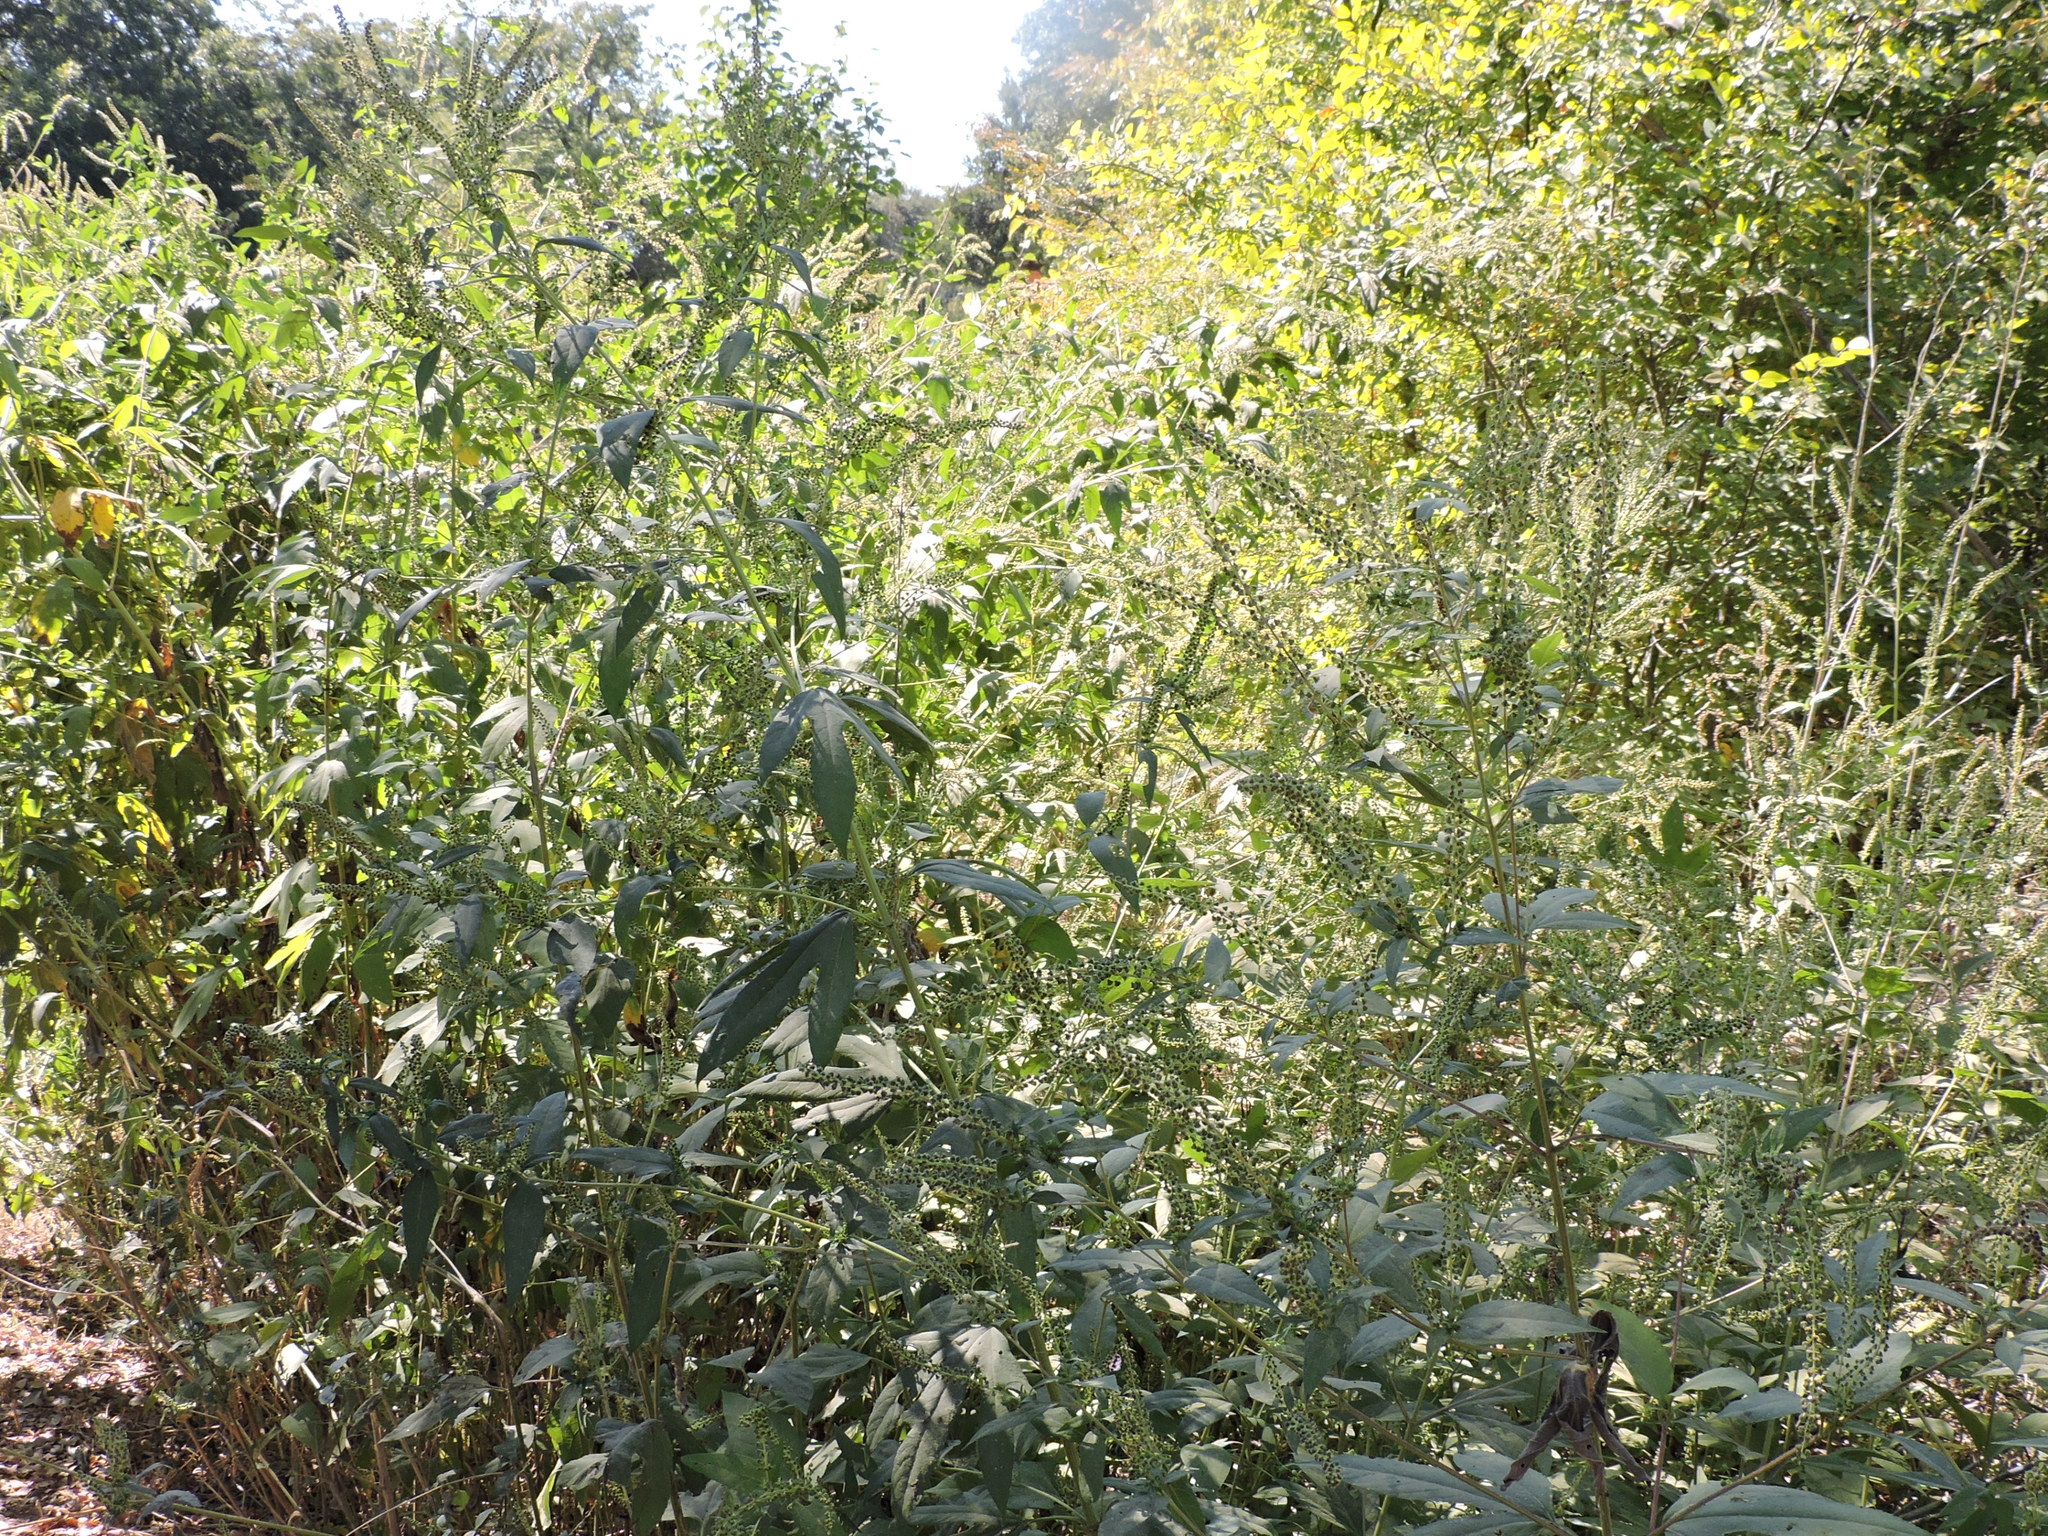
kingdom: Plantae
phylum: Tracheophyta
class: Magnoliopsida
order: Asterales
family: Asteraceae
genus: Ambrosia
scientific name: Ambrosia trifida
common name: Giant ragweed
